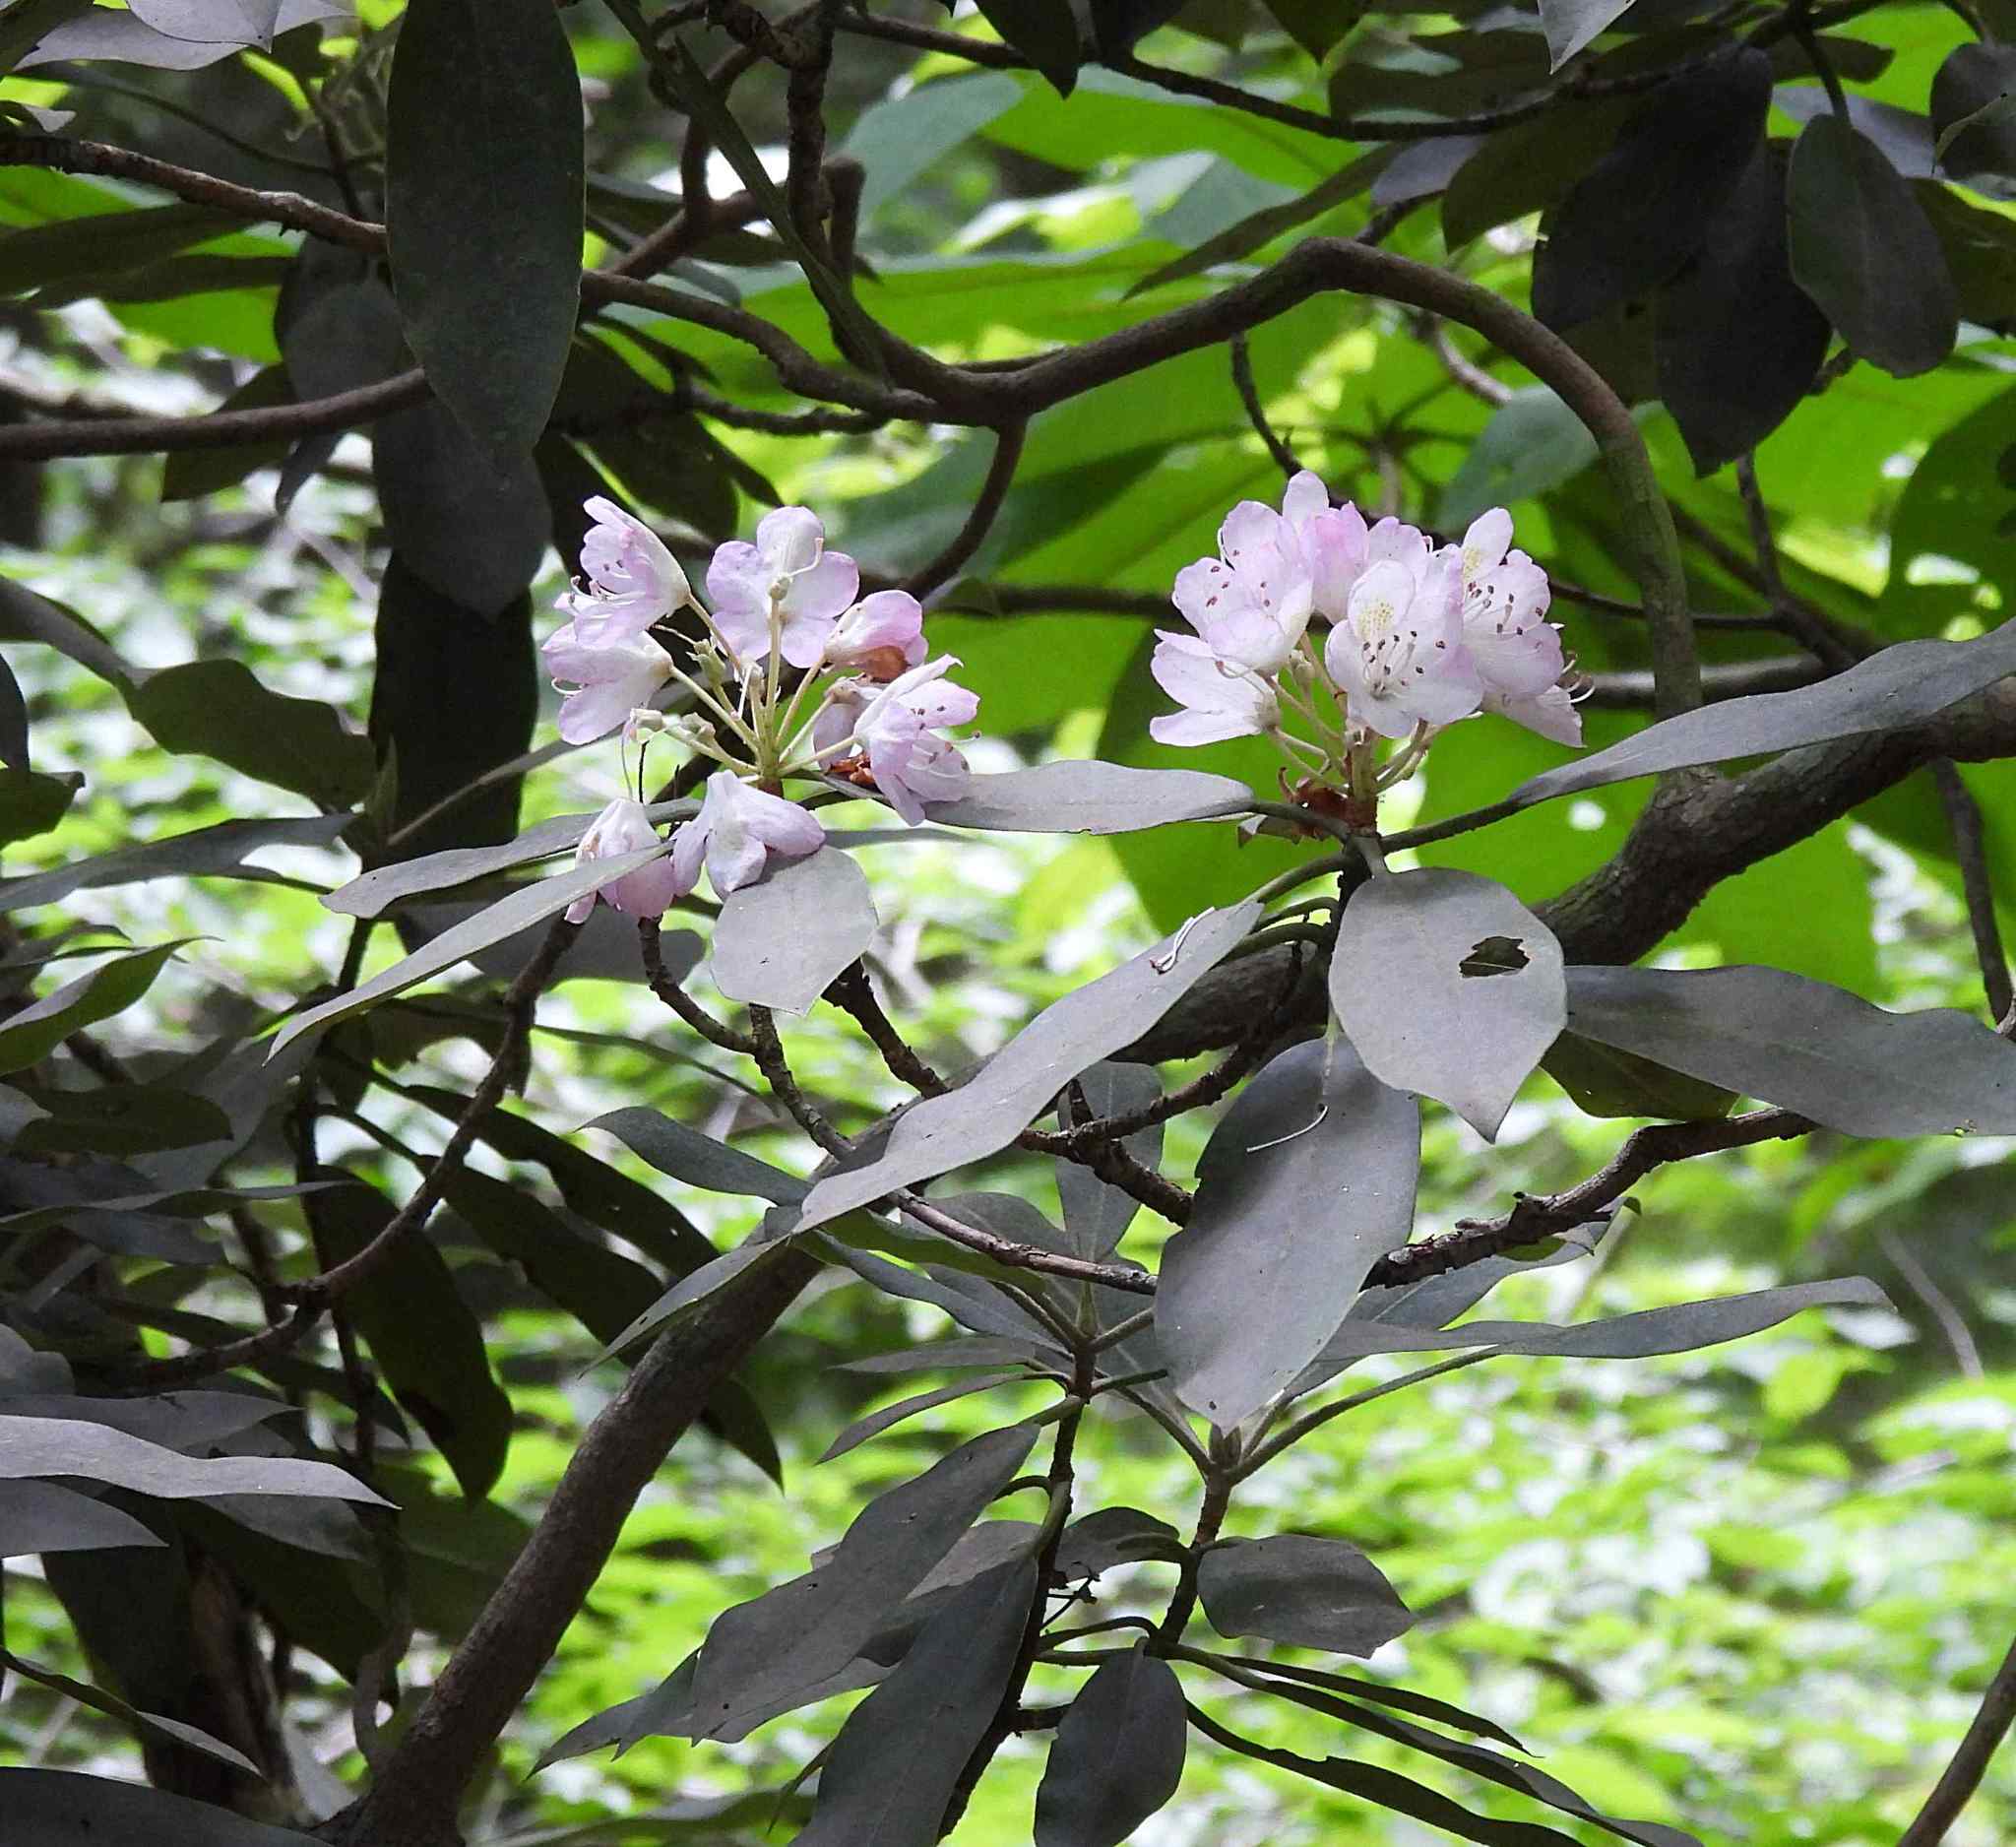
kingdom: Plantae
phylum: Tracheophyta
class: Magnoliopsida
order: Ericales
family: Ericaceae
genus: Rhododendron
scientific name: Rhododendron maximum
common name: Great rhododendron
